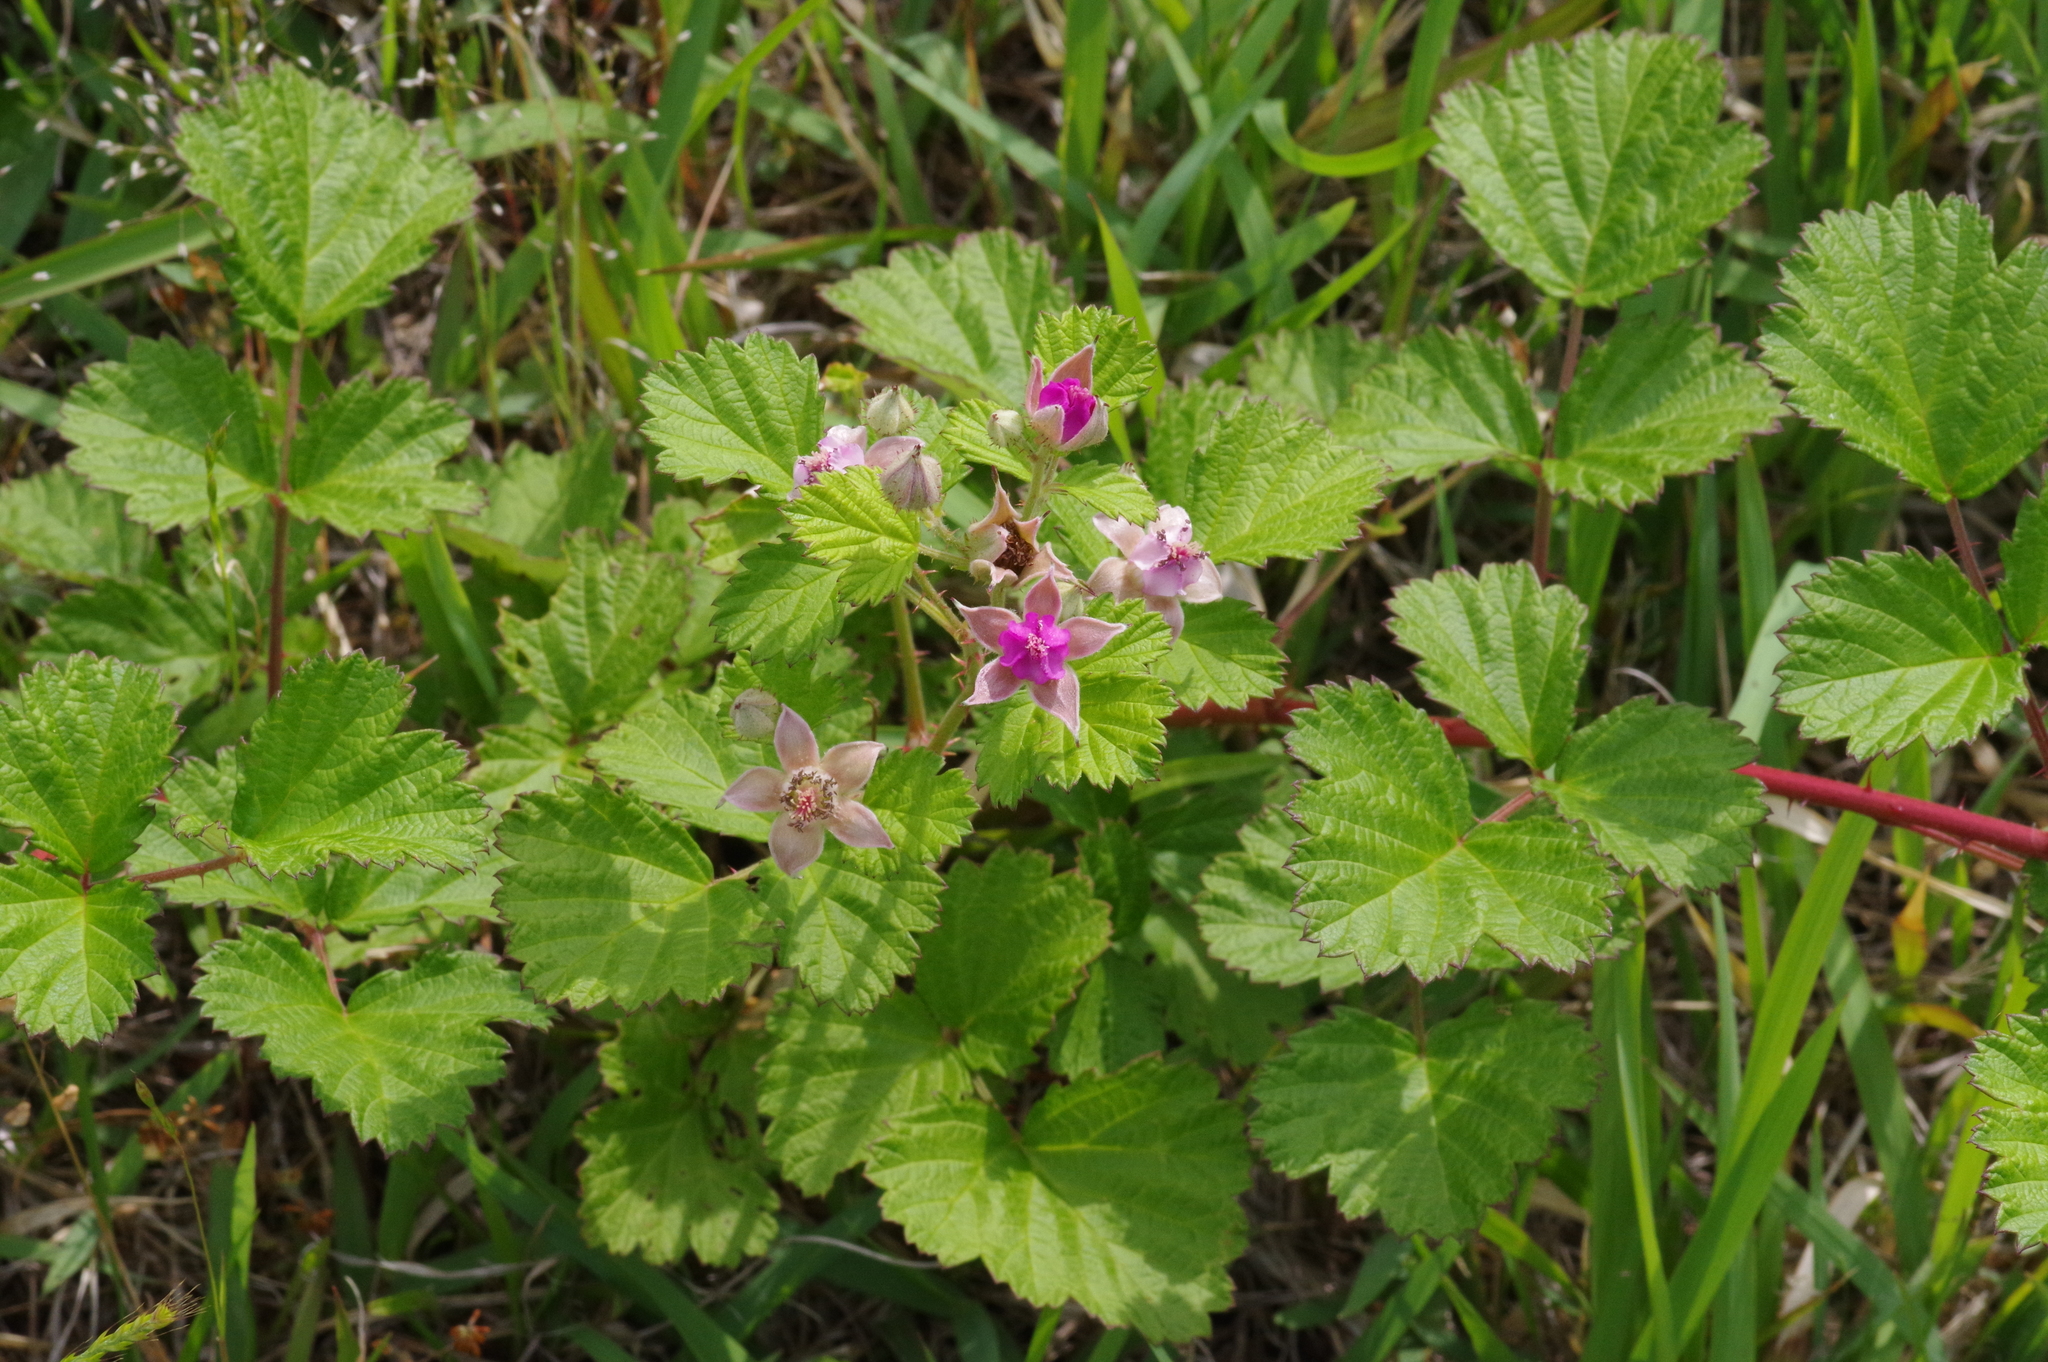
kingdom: Plantae
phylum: Tracheophyta
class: Magnoliopsida
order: Rosales
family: Rosaceae
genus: Rubus
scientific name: Rubus parvifolius
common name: Threeleaf blackberry
